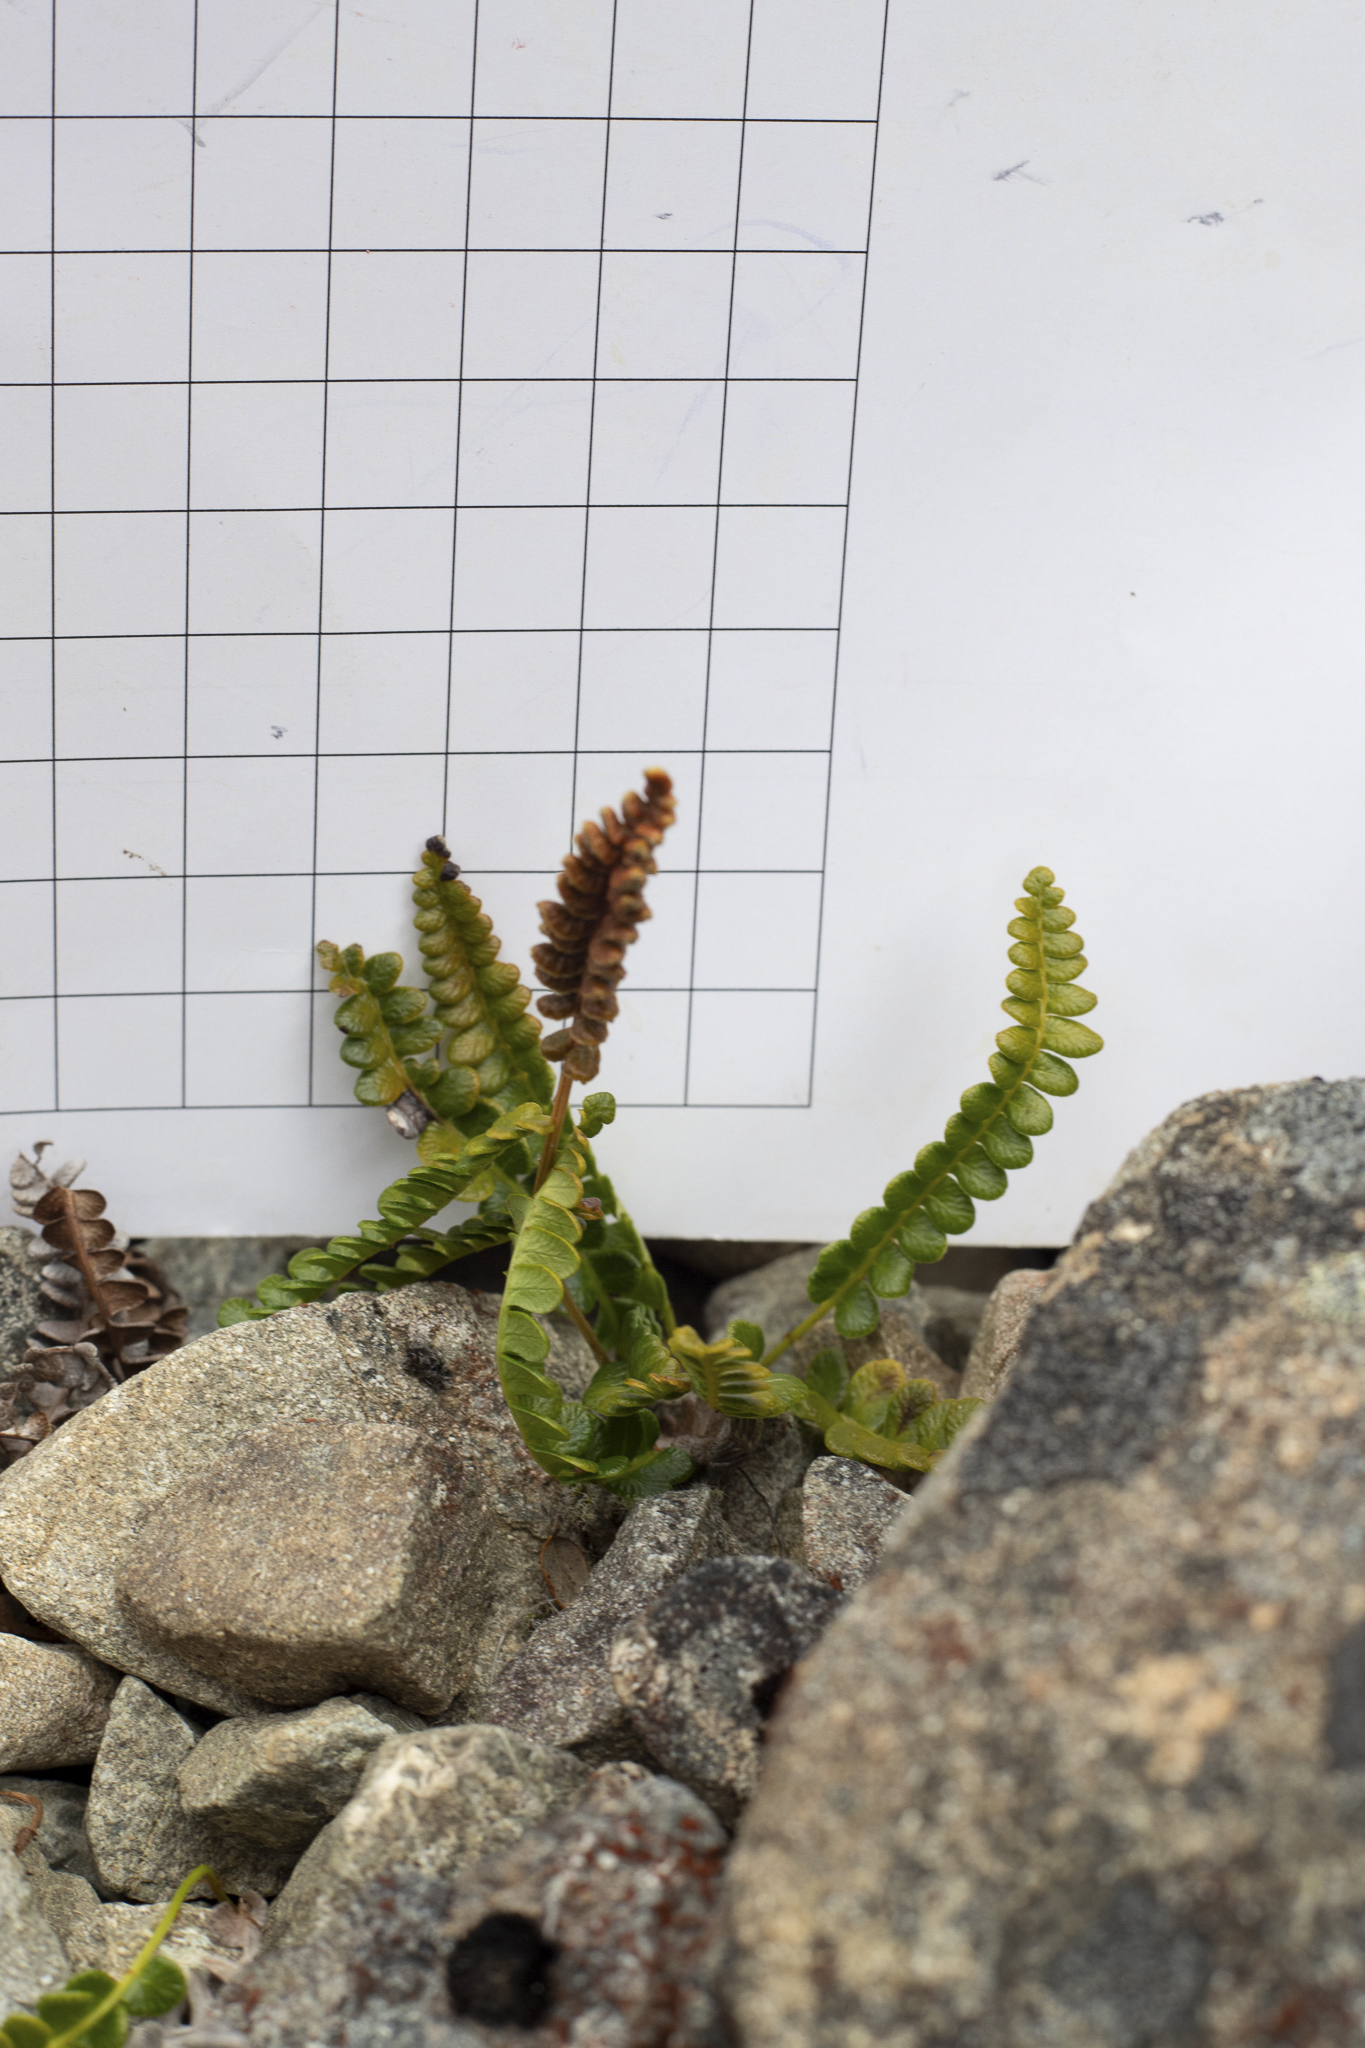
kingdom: Plantae
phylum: Tracheophyta
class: Polypodiopsida
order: Polypodiales
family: Blechnaceae
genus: Austroblechnum
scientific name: Austroblechnum penna-marina
